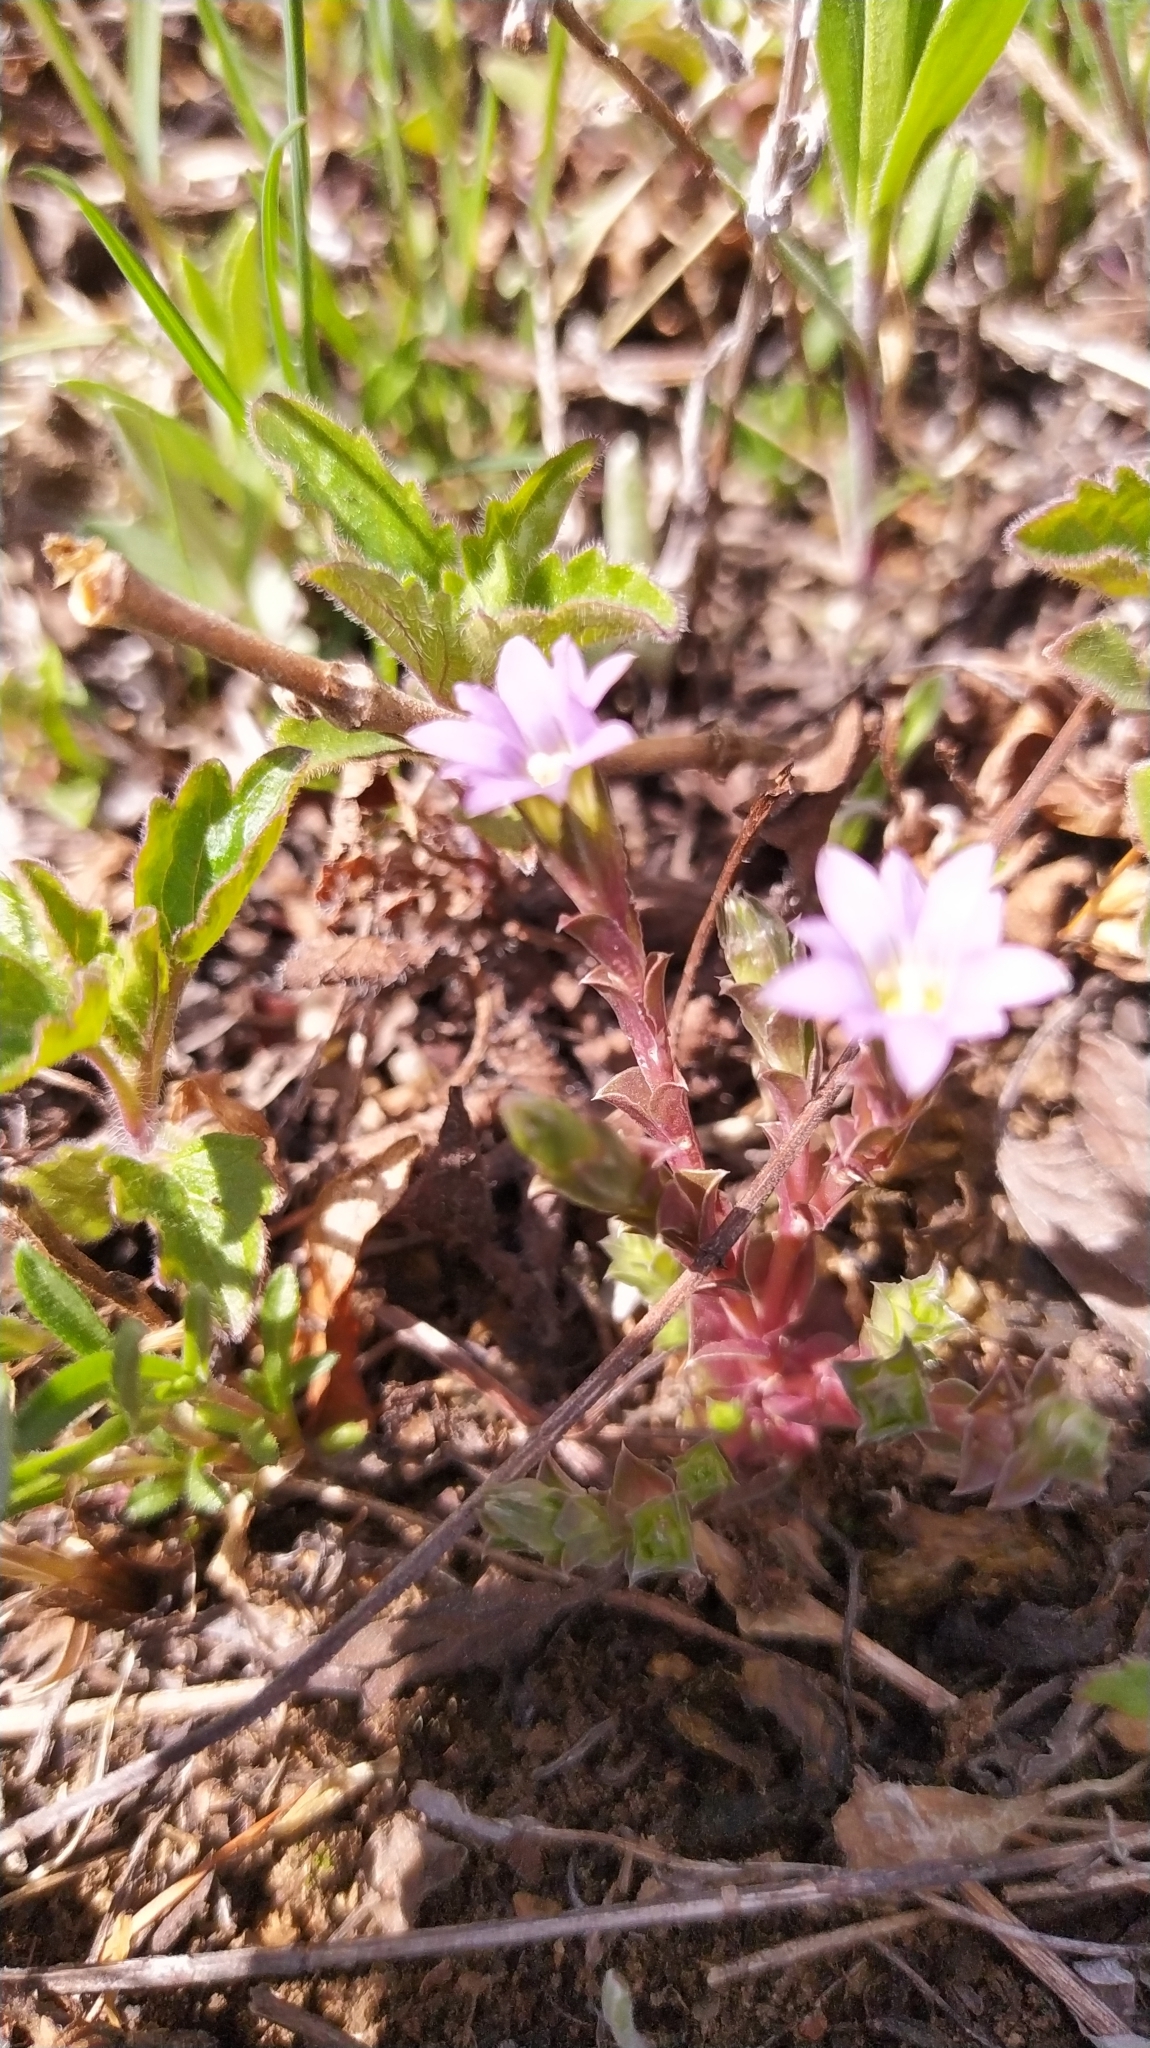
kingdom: Plantae
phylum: Tracheophyta
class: Magnoliopsida
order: Gentianales
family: Gentianaceae
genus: Gentiana
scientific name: Gentiana squarrosa
